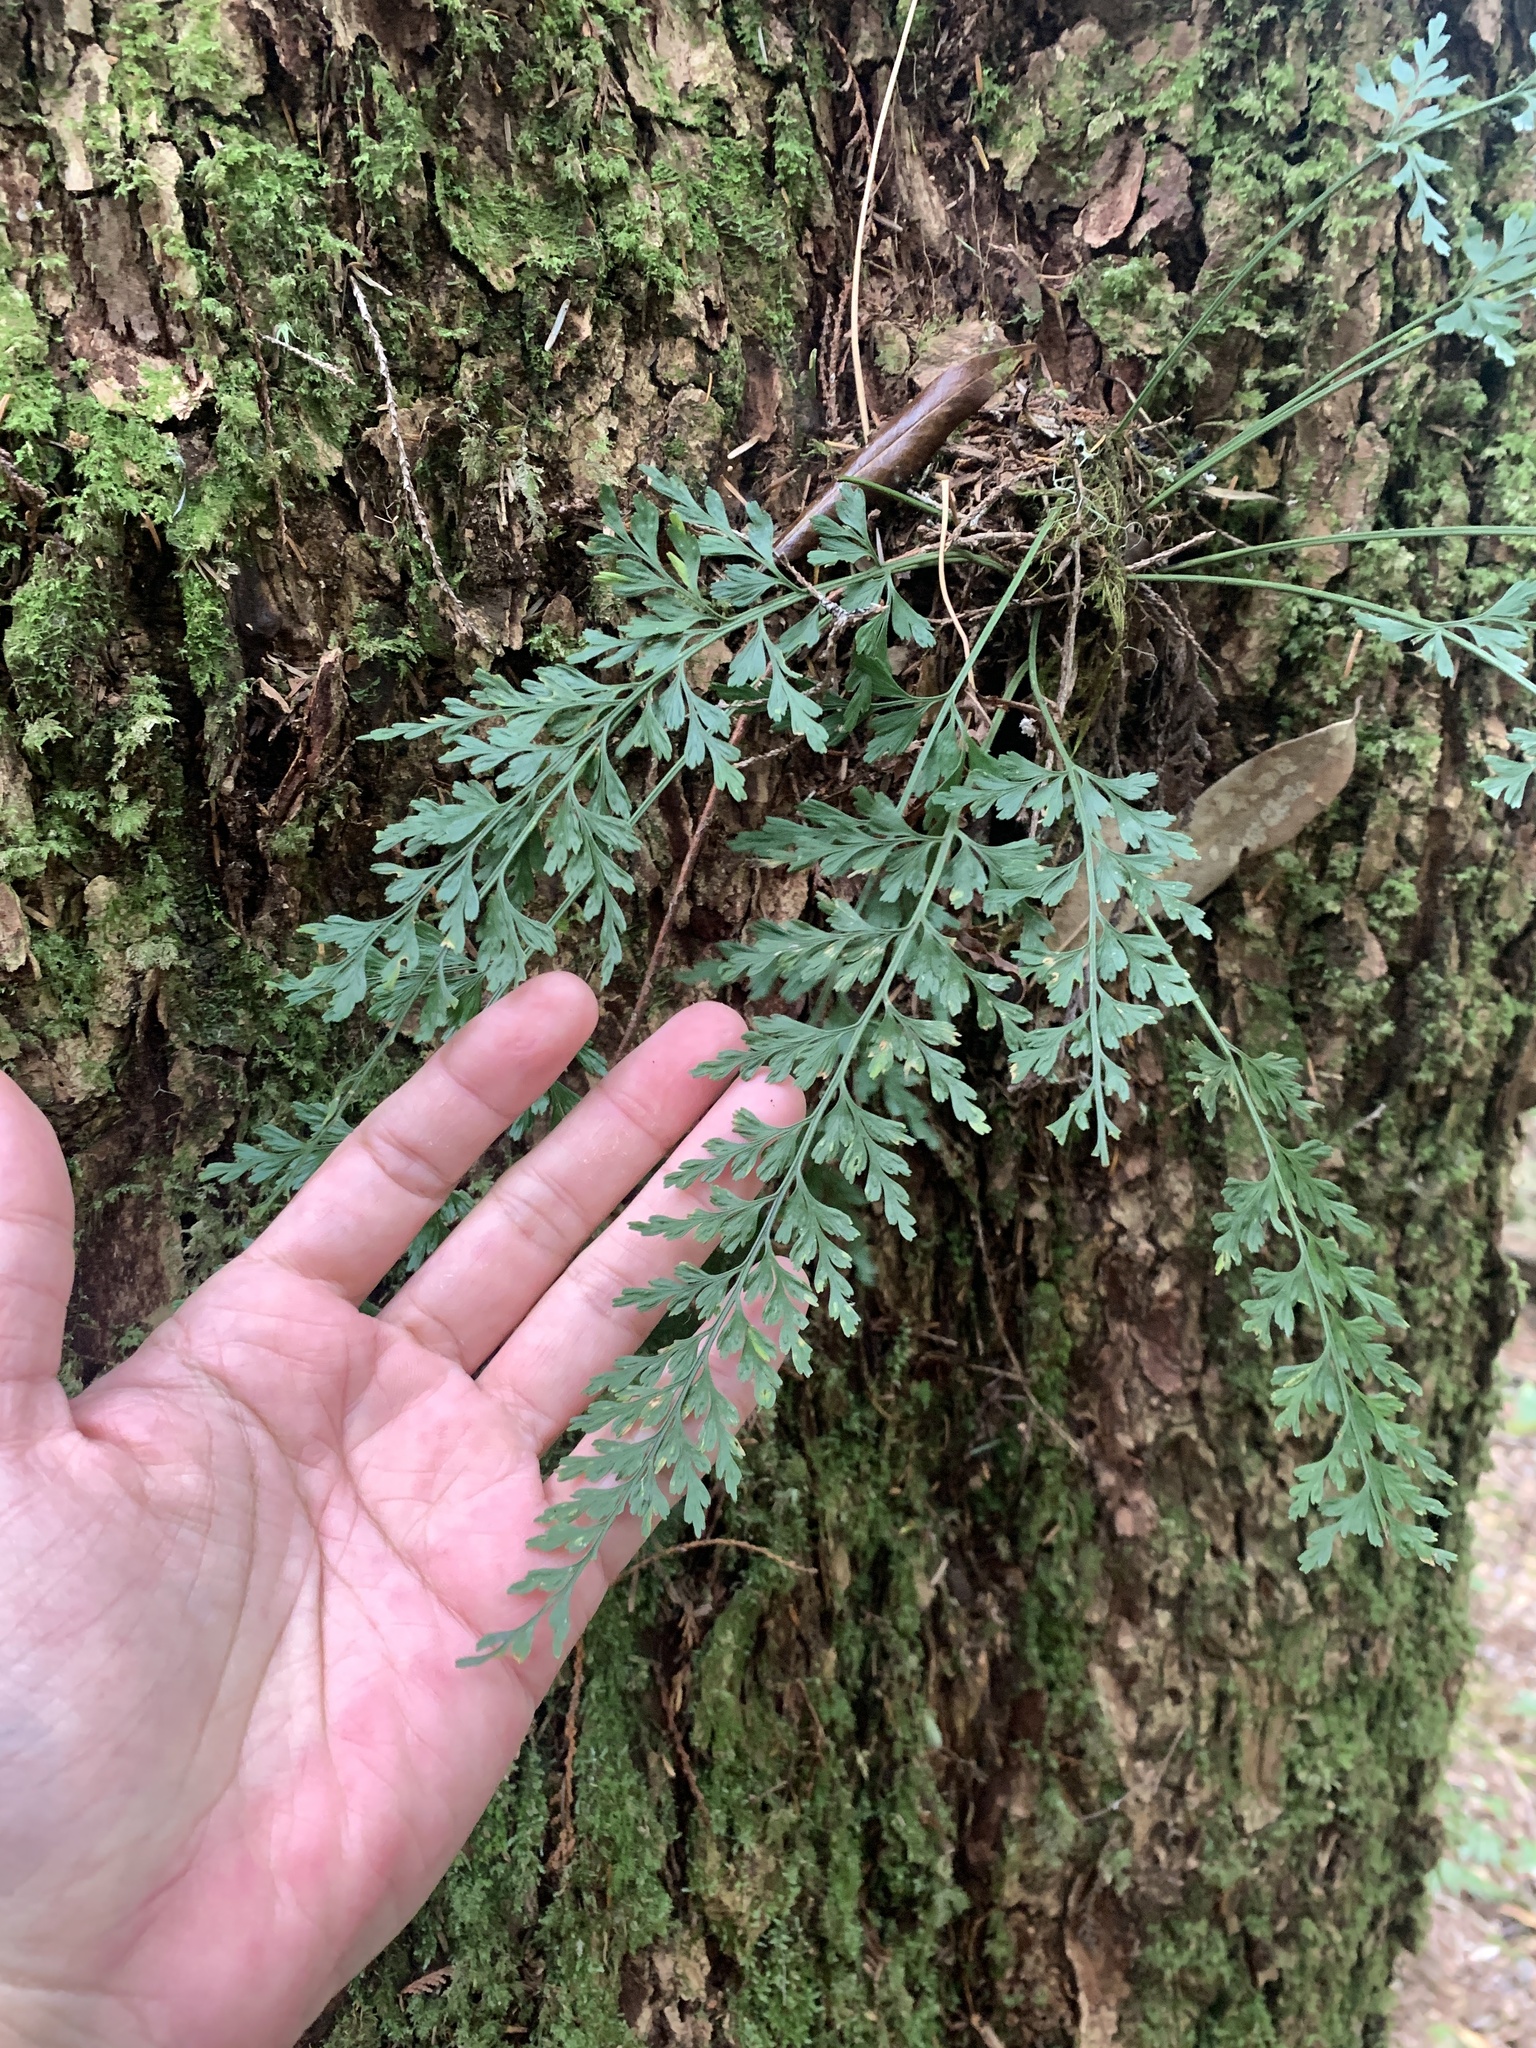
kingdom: Plantae
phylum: Tracheophyta
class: Polypodiopsida
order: Polypodiales
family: Aspleniaceae
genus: Asplenium
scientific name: Asplenium wilfordii
